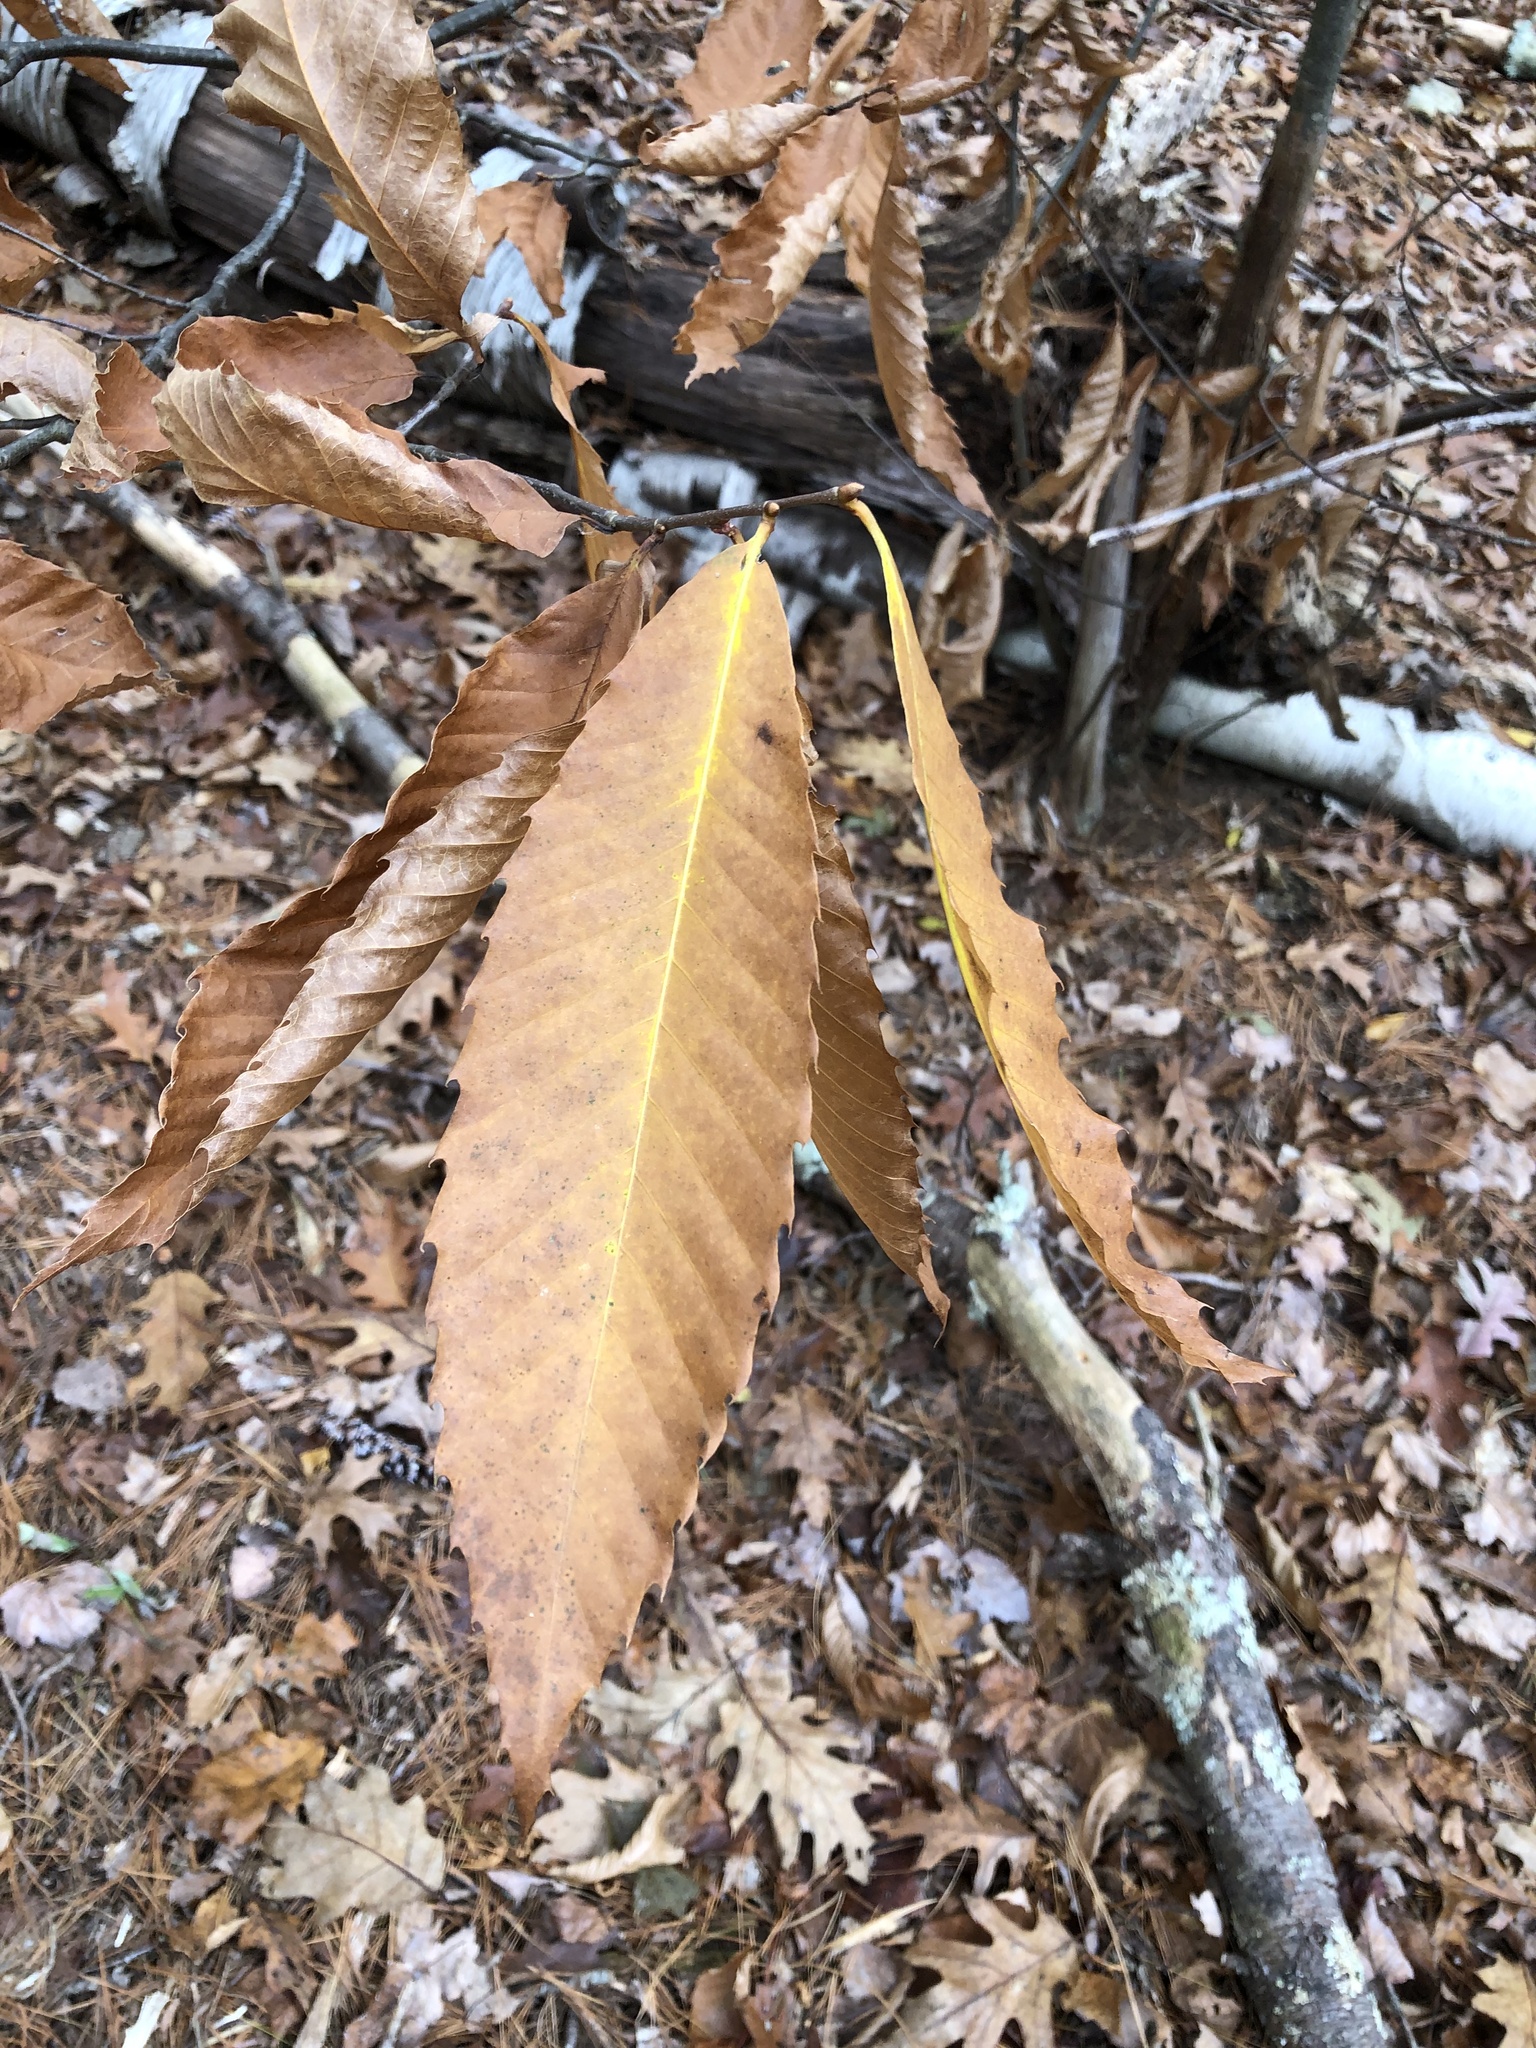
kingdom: Plantae
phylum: Tracheophyta
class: Magnoliopsida
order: Fagales
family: Fagaceae
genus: Castanea
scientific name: Castanea dentata
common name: American chestnut
